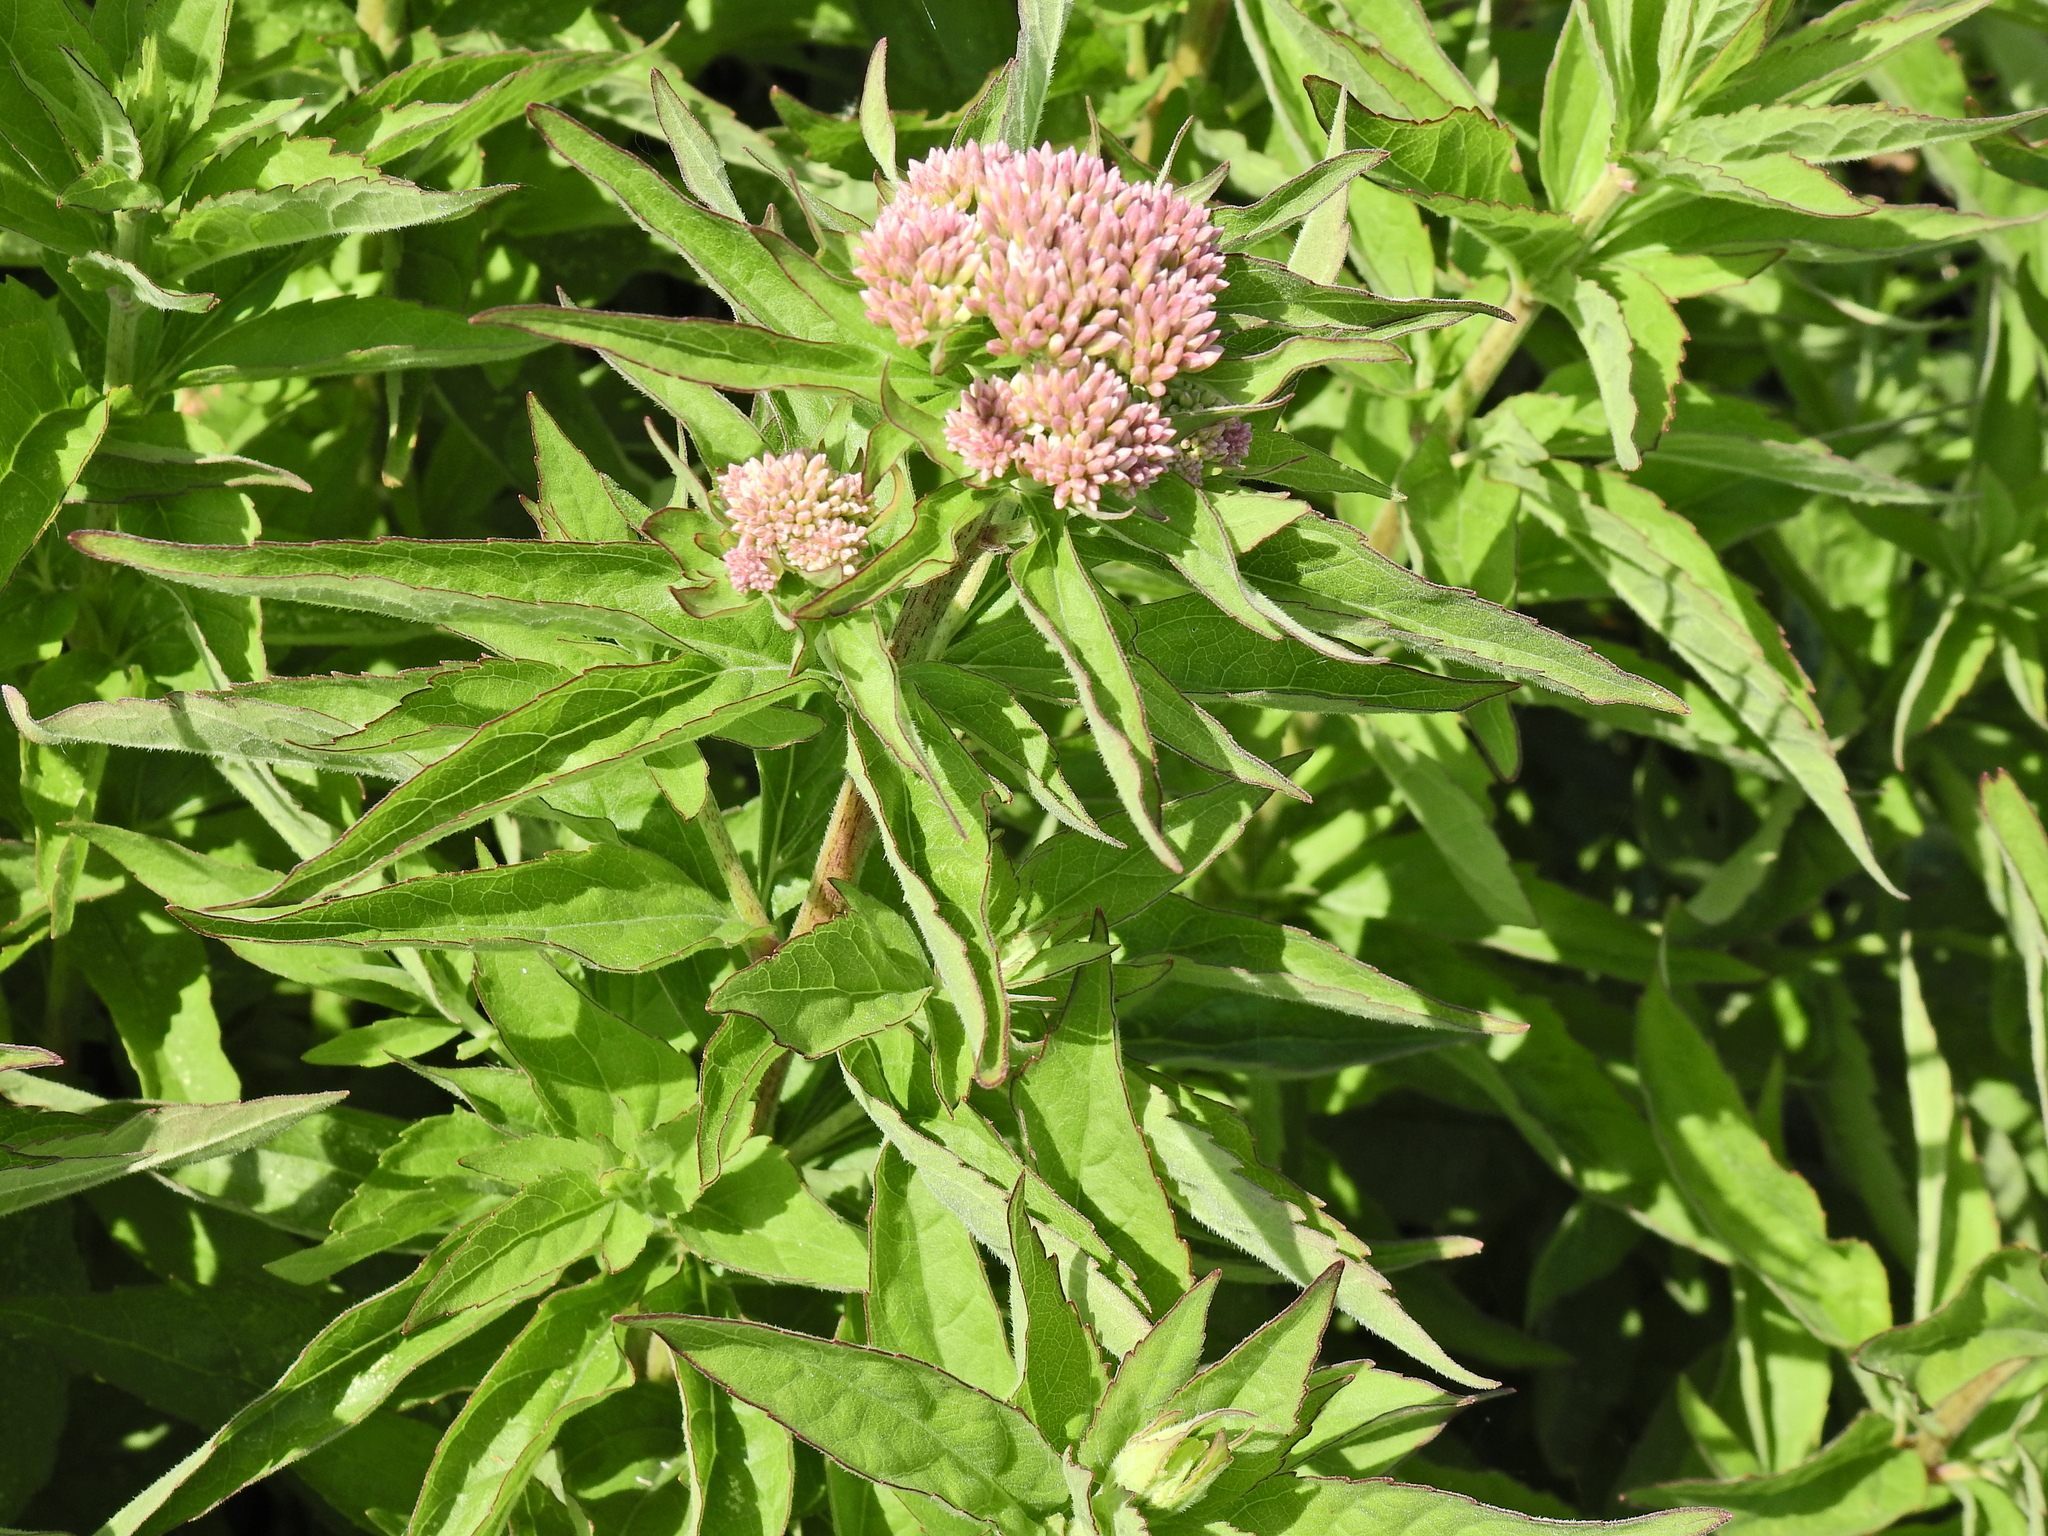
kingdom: Plantae
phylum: Tracheophyta
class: Magnoliopsida
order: Asterales
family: Asteraceae
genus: Eupatorium
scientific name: Eupatorium cannabinum
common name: Hemp-agrimony
